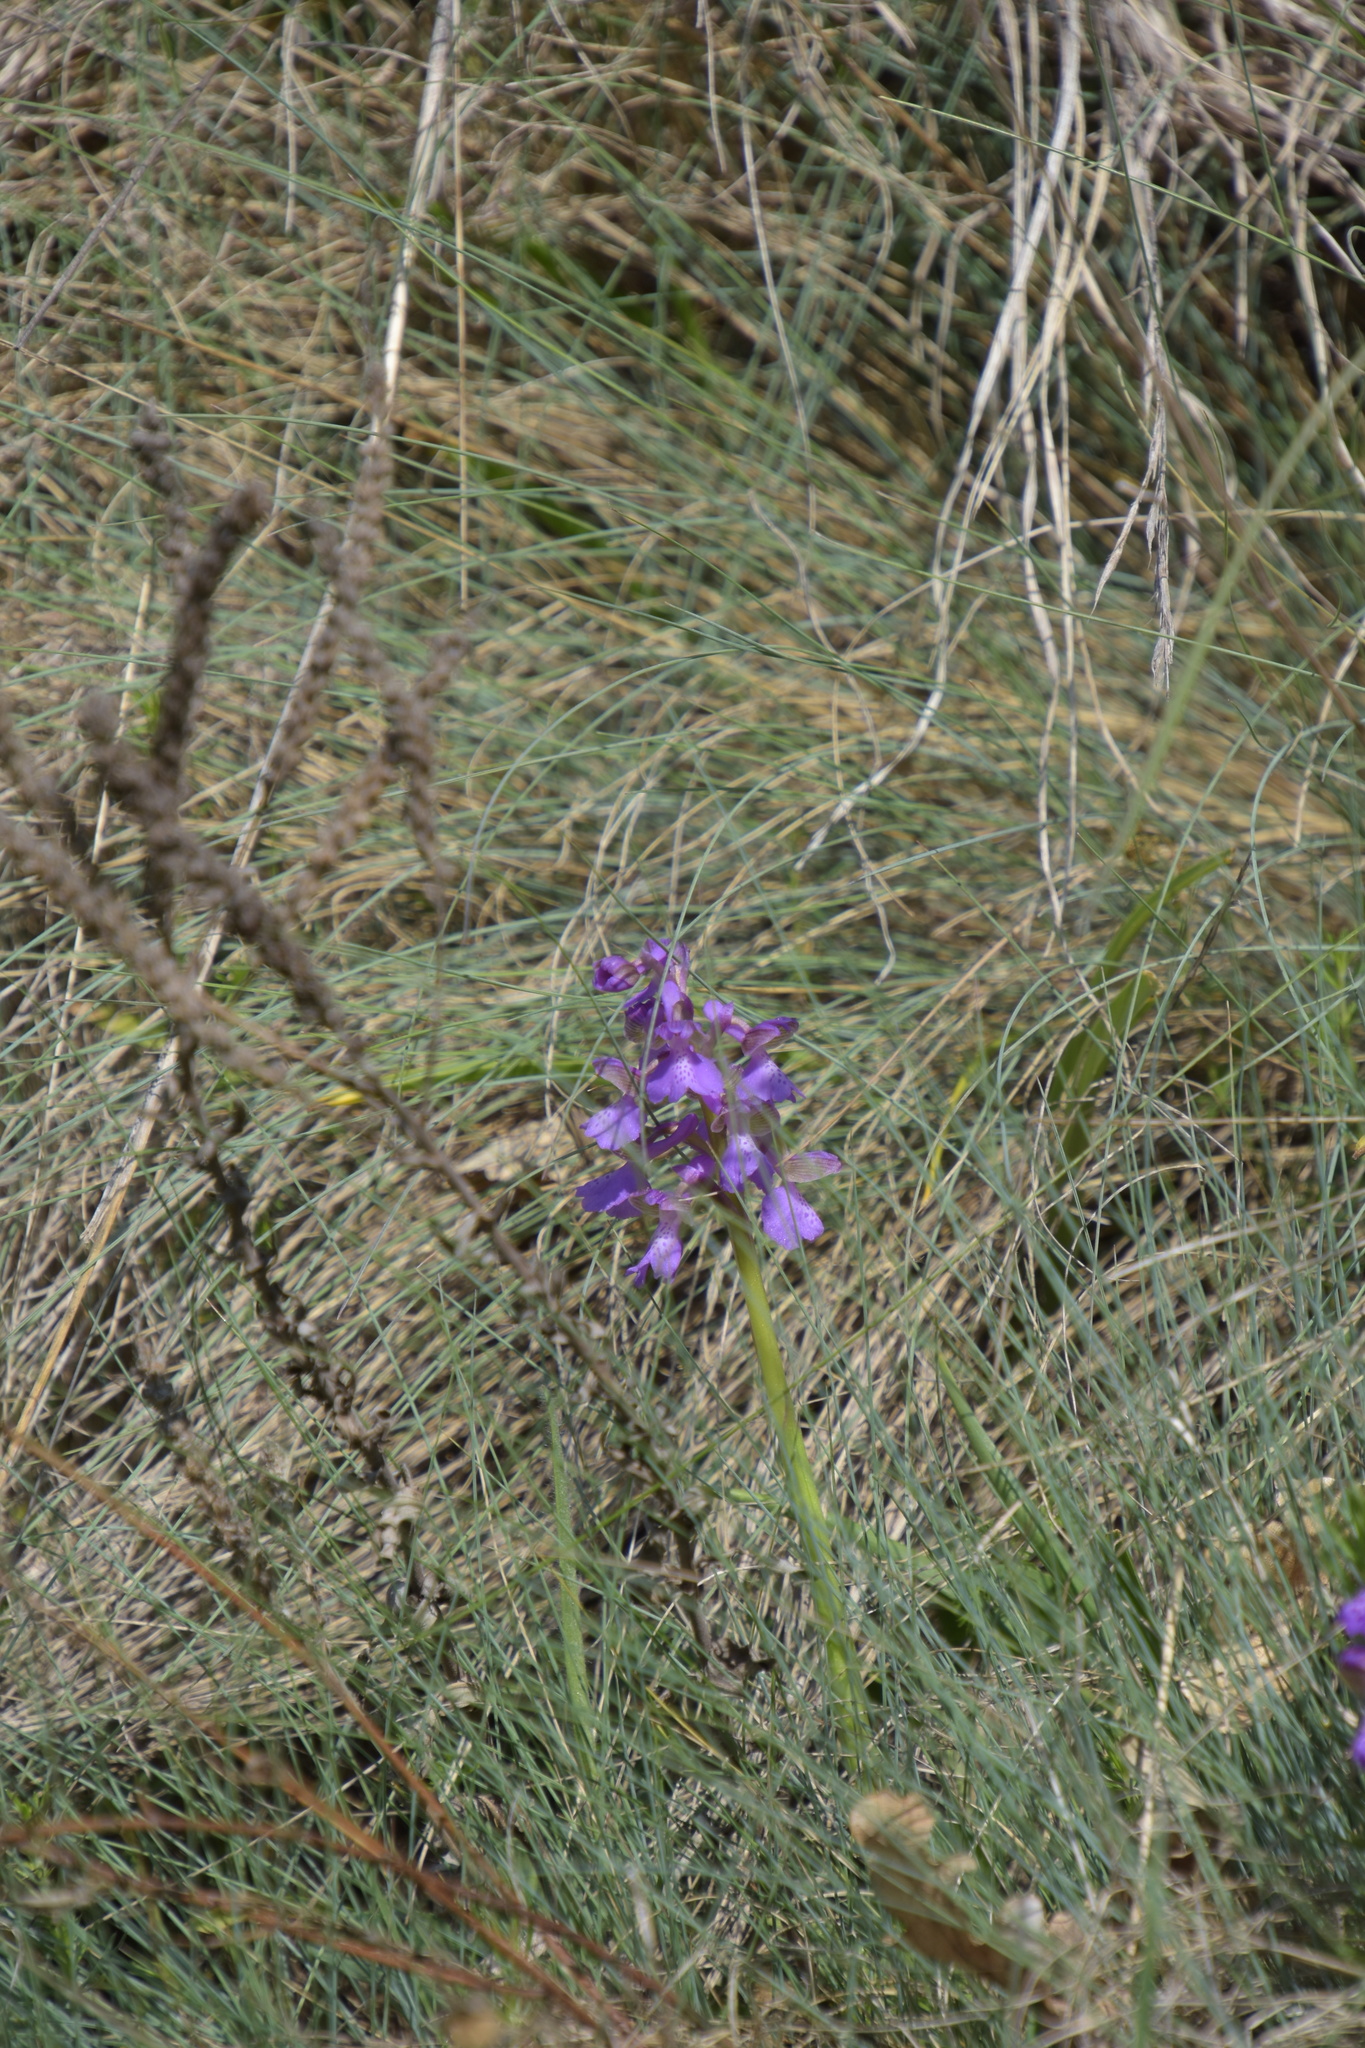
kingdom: Plantae
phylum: Tracheophyta
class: Liliopsida
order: Asparagales
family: Orchidaceae
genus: Anacamptis
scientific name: Anacamptis morio
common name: Green-winged orchid
